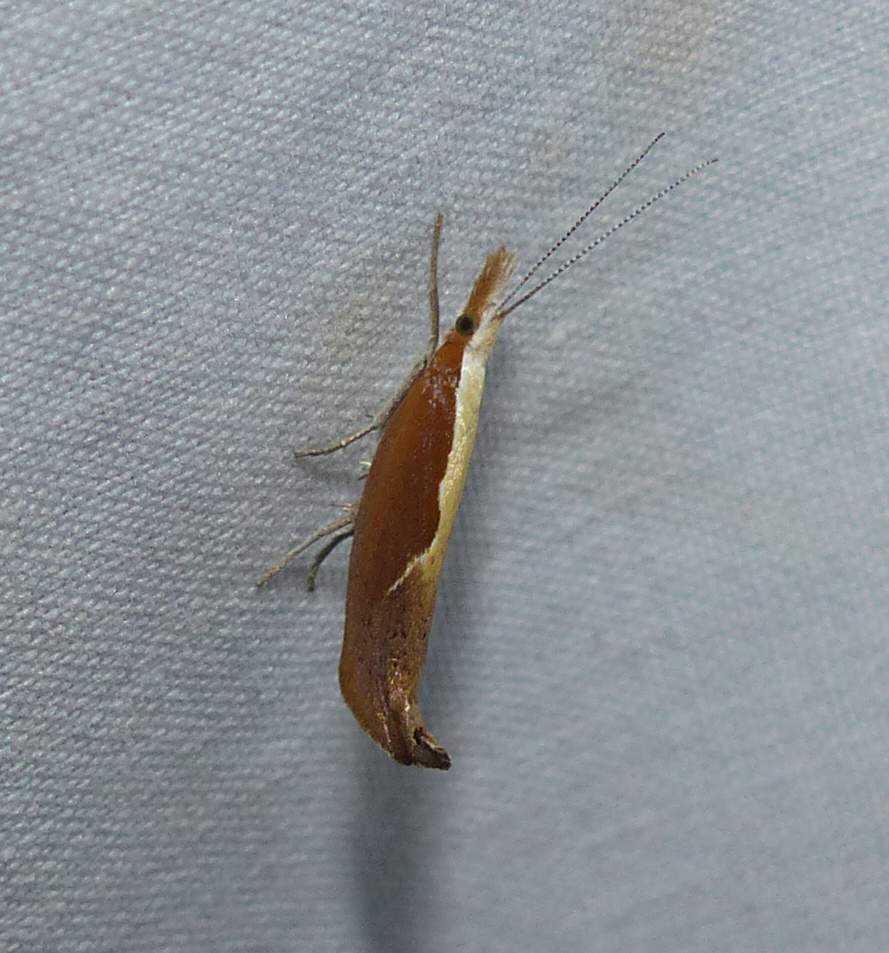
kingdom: Animalia
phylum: Arthropoda
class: Insecta
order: Lepidoptera
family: Ypsolophidae
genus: Ypsolopha
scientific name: Ypsolopha dentella
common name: Honeysuckle moth
